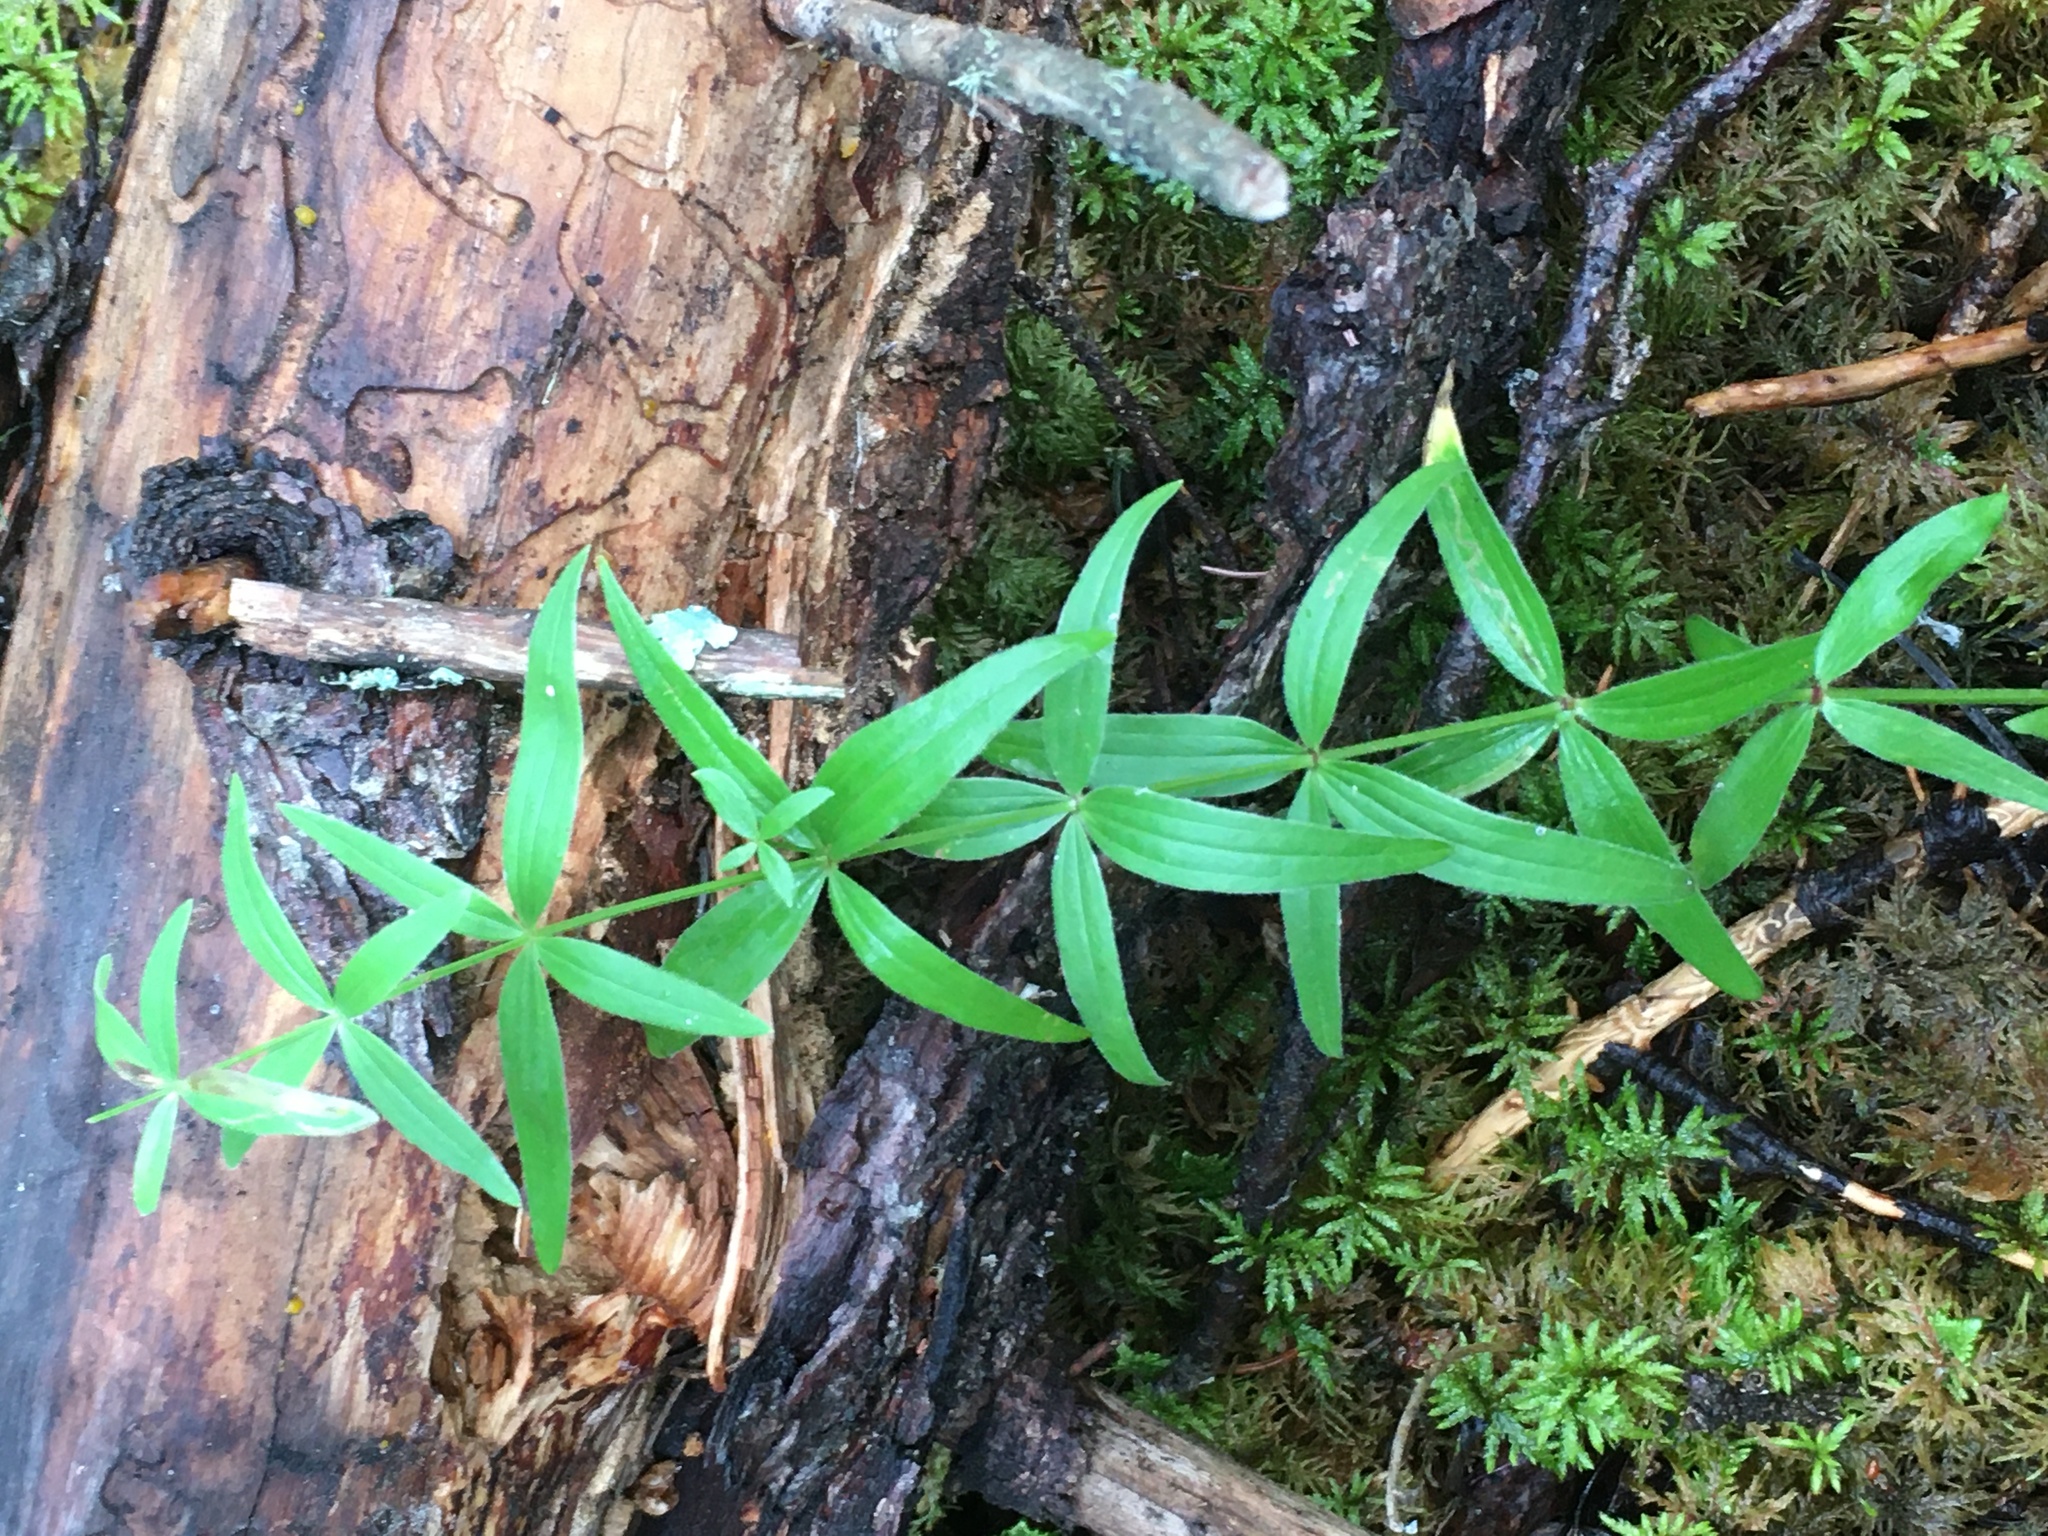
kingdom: Plantae
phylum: Tracheophyta
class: Magnoliopsida
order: Gentianales
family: Rubiaceae
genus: Galium
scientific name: Galium boreale
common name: Northern bedstraw
